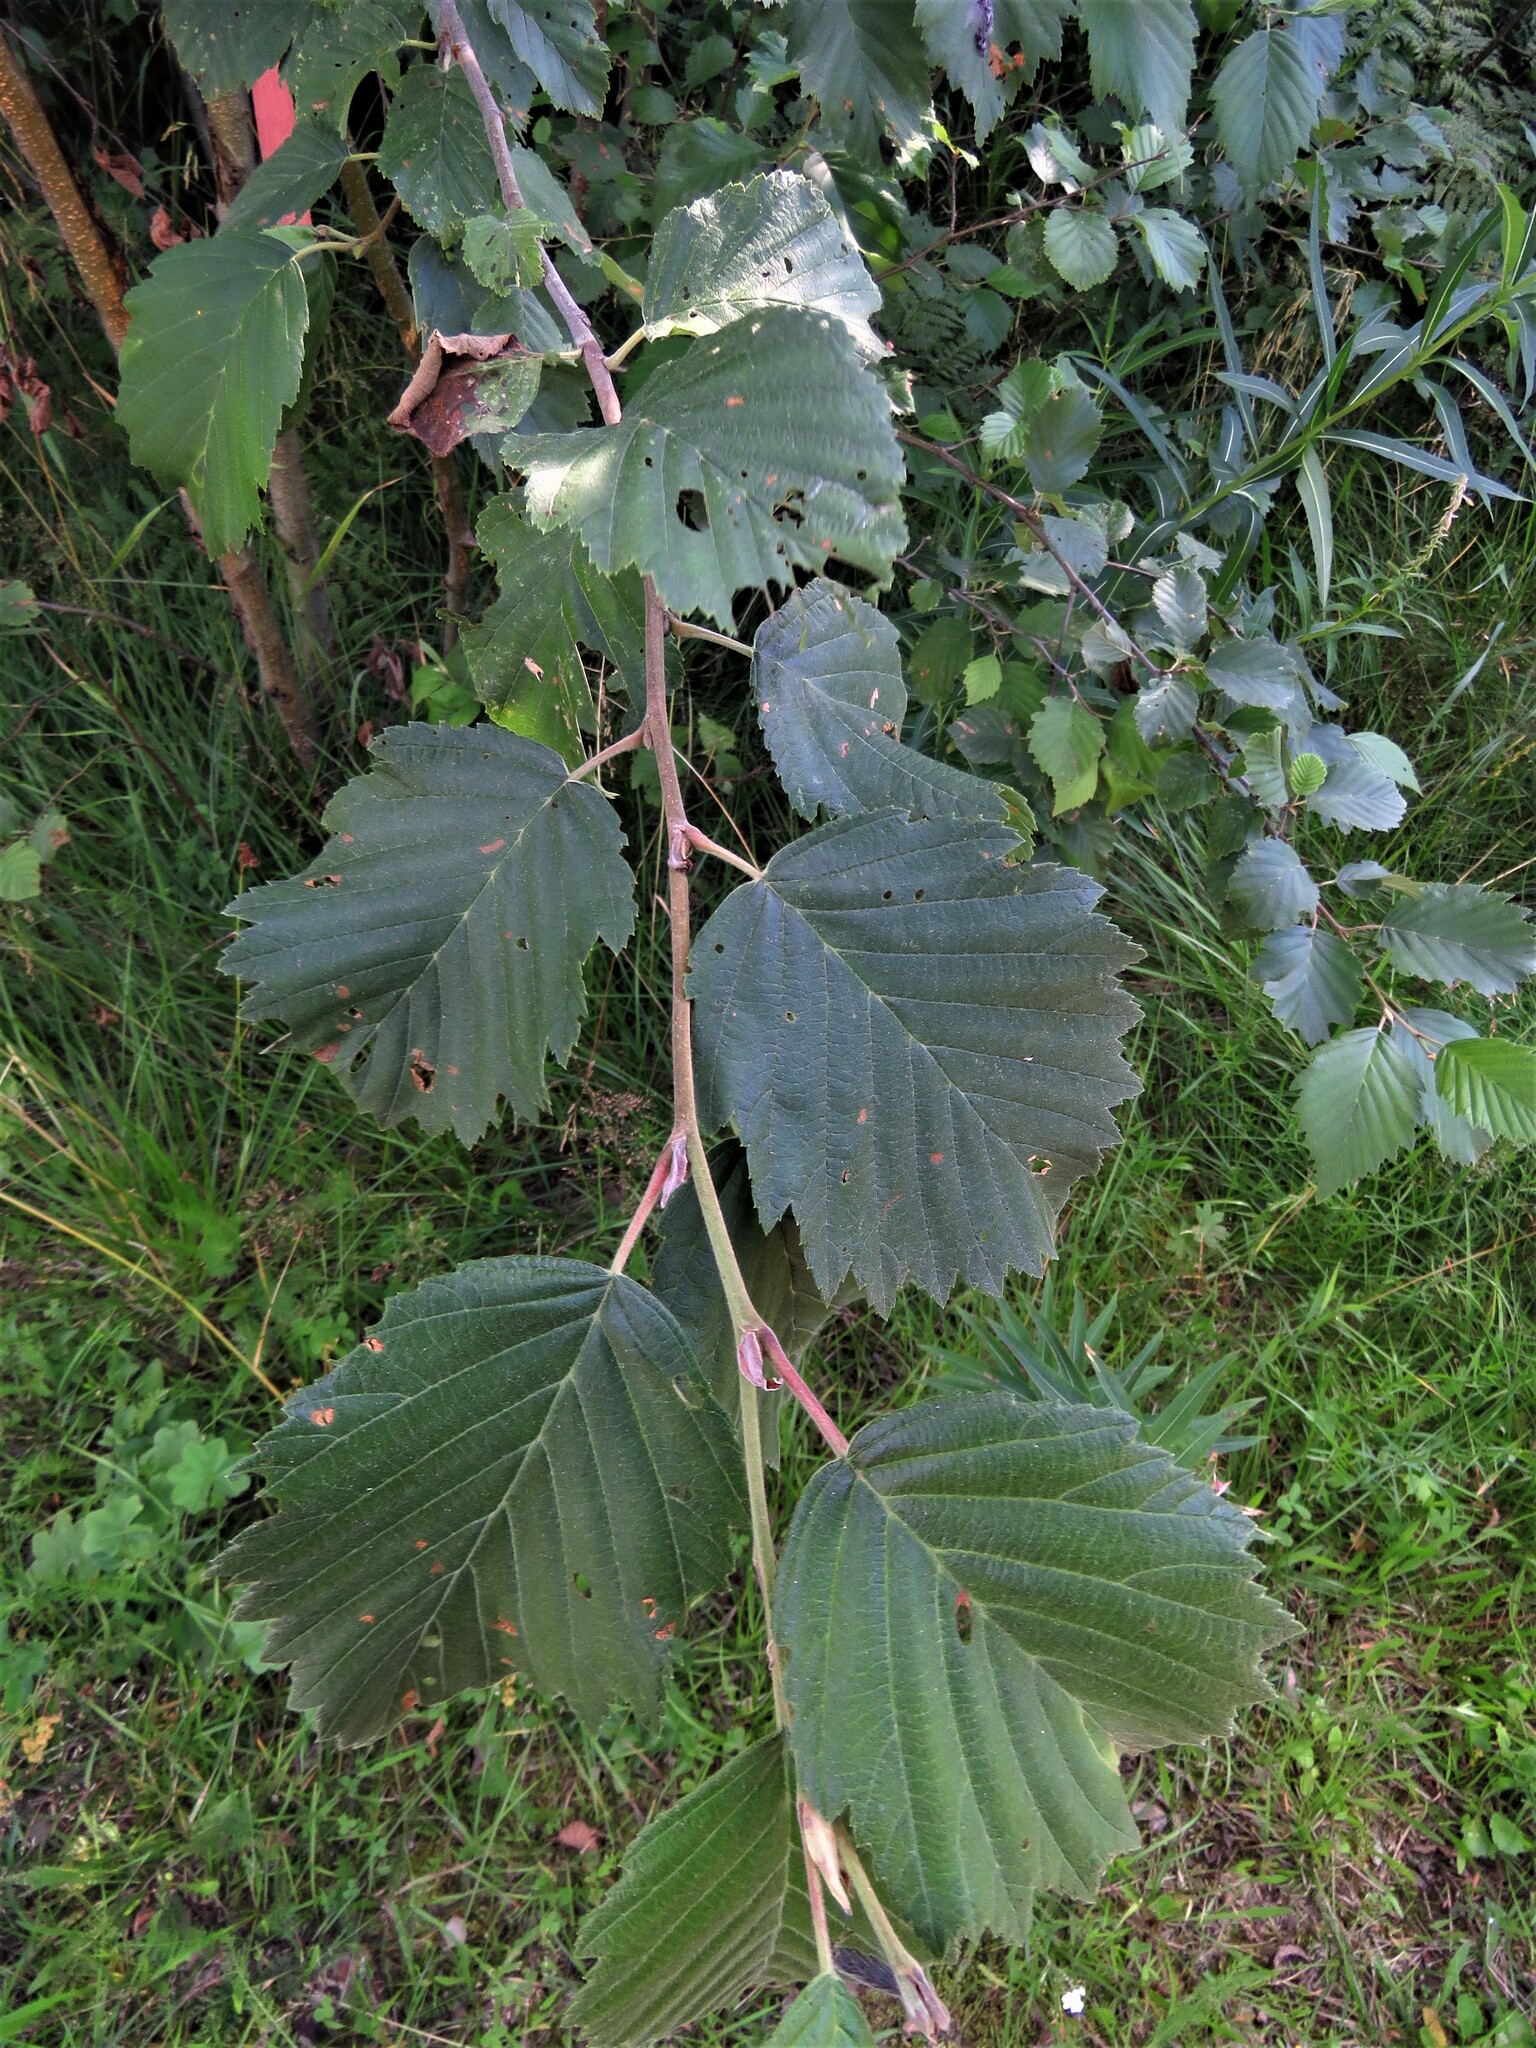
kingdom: Plantae
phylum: Tracheophyta
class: Magnoliopsida
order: Fagales
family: Betulaceae
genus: Alnus
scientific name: Alnus incana
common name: Grey alder
